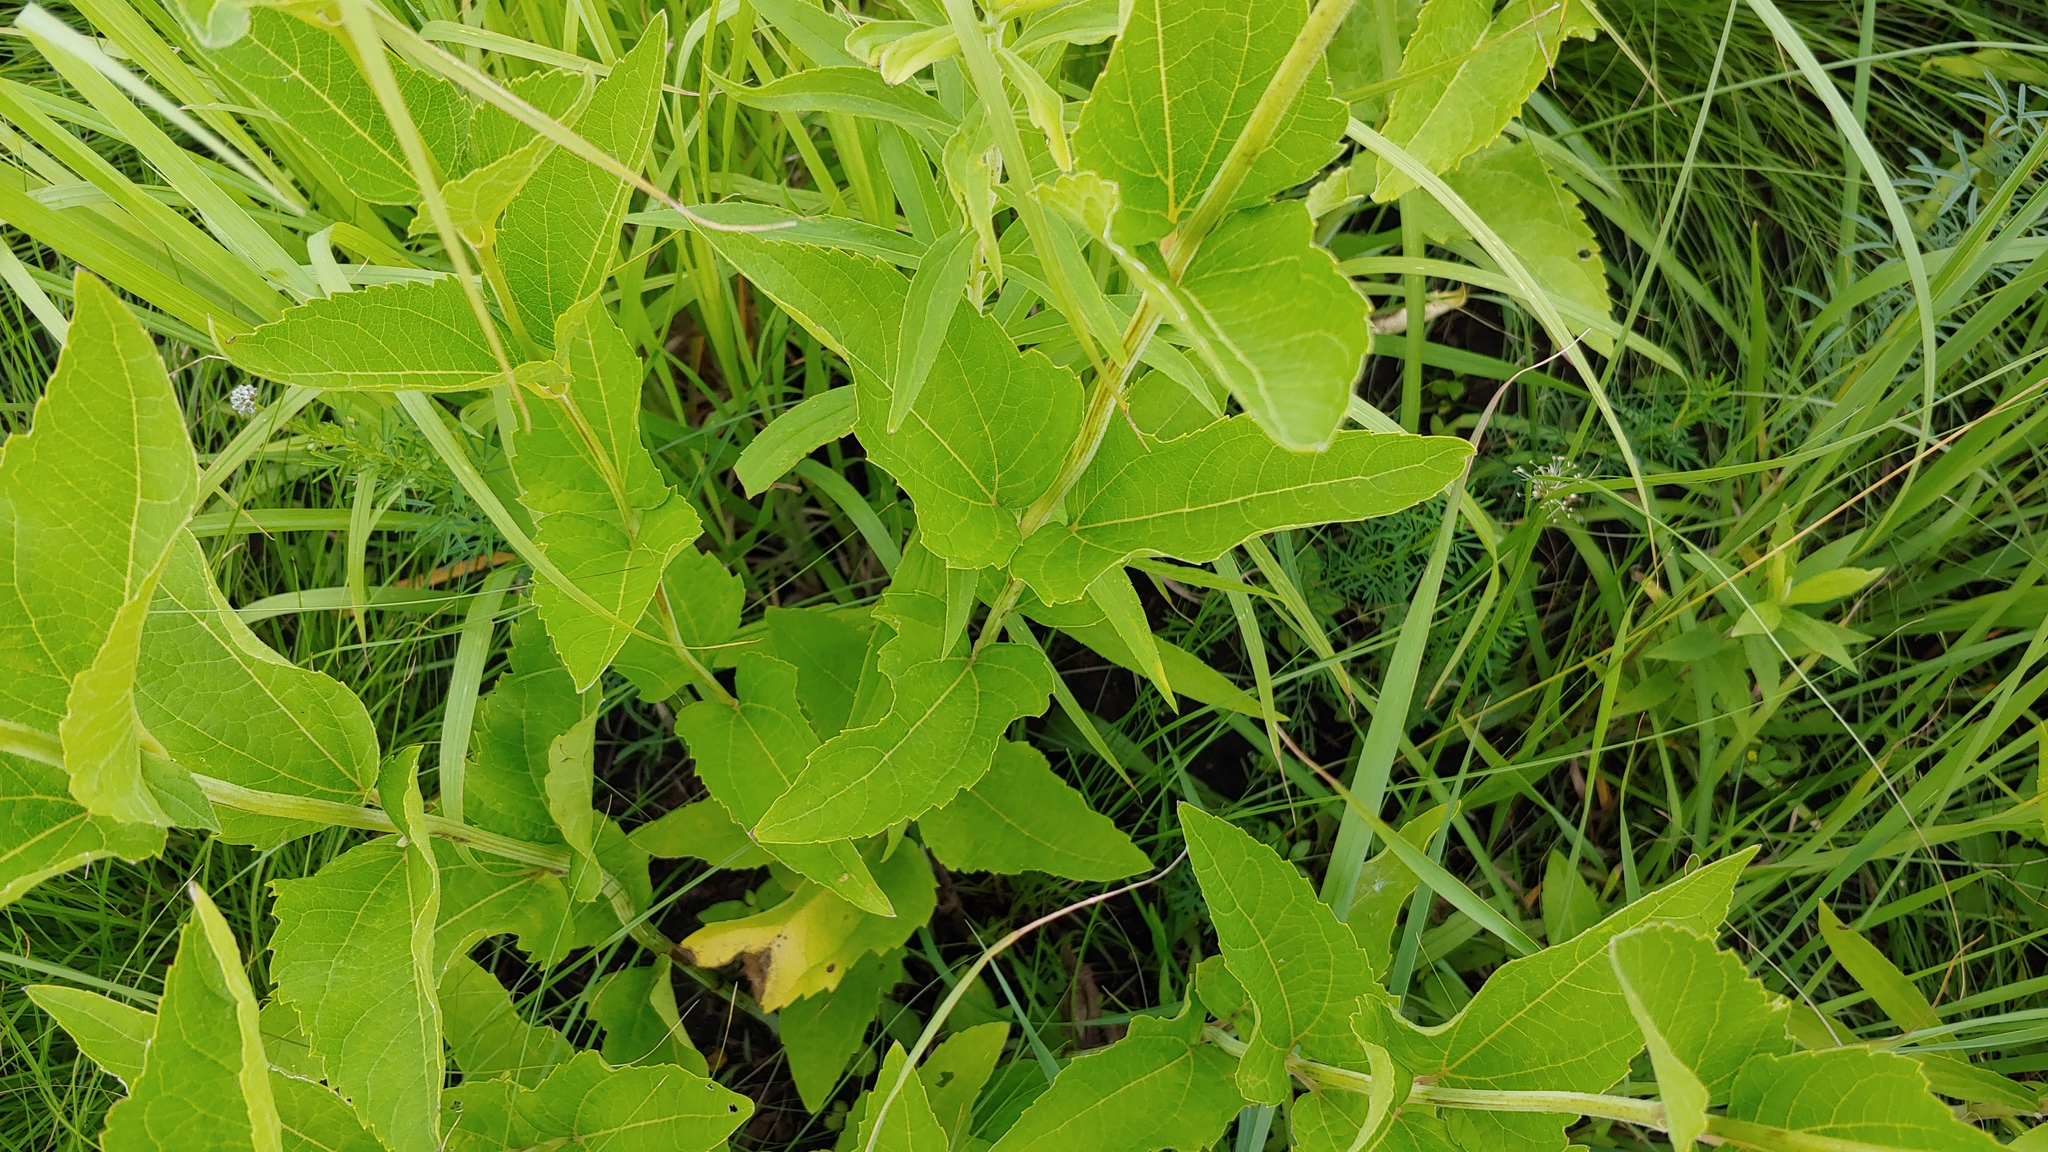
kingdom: Plantae
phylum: Tracheophyta
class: Magnoliopsida
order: Asterales
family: Asteraceae
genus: Heliopsis
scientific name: Heliopsis helianthoides
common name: False sunflower
